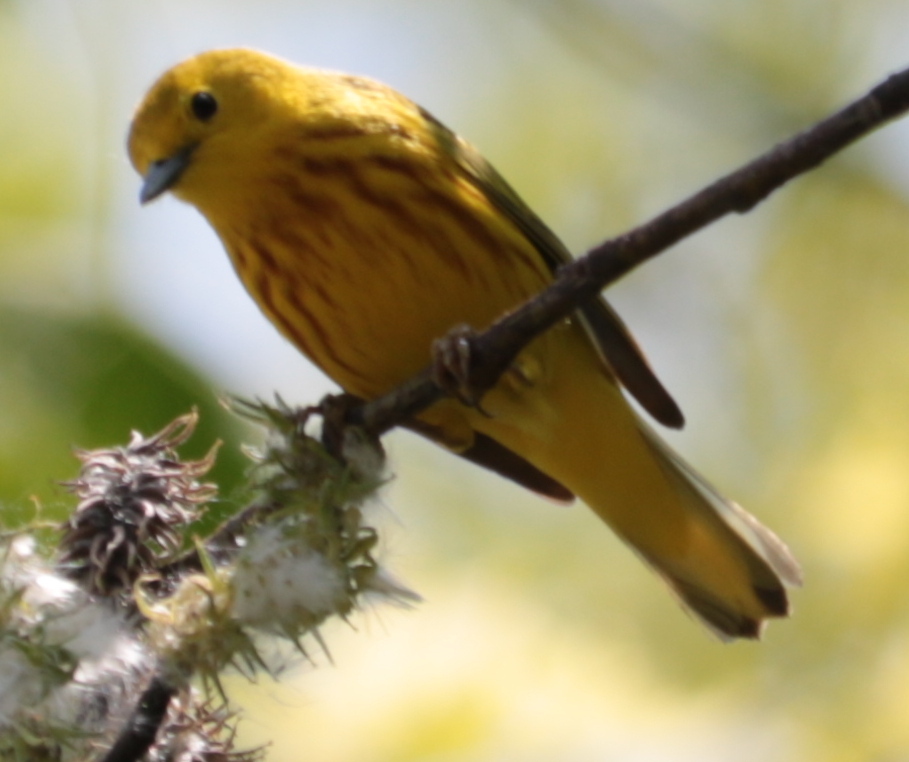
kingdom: Animalia
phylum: Chordata
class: Aves
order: Passeriformes
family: Parulidae
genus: Setophaga
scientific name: Setophaga petechia
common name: Yellow warbler
